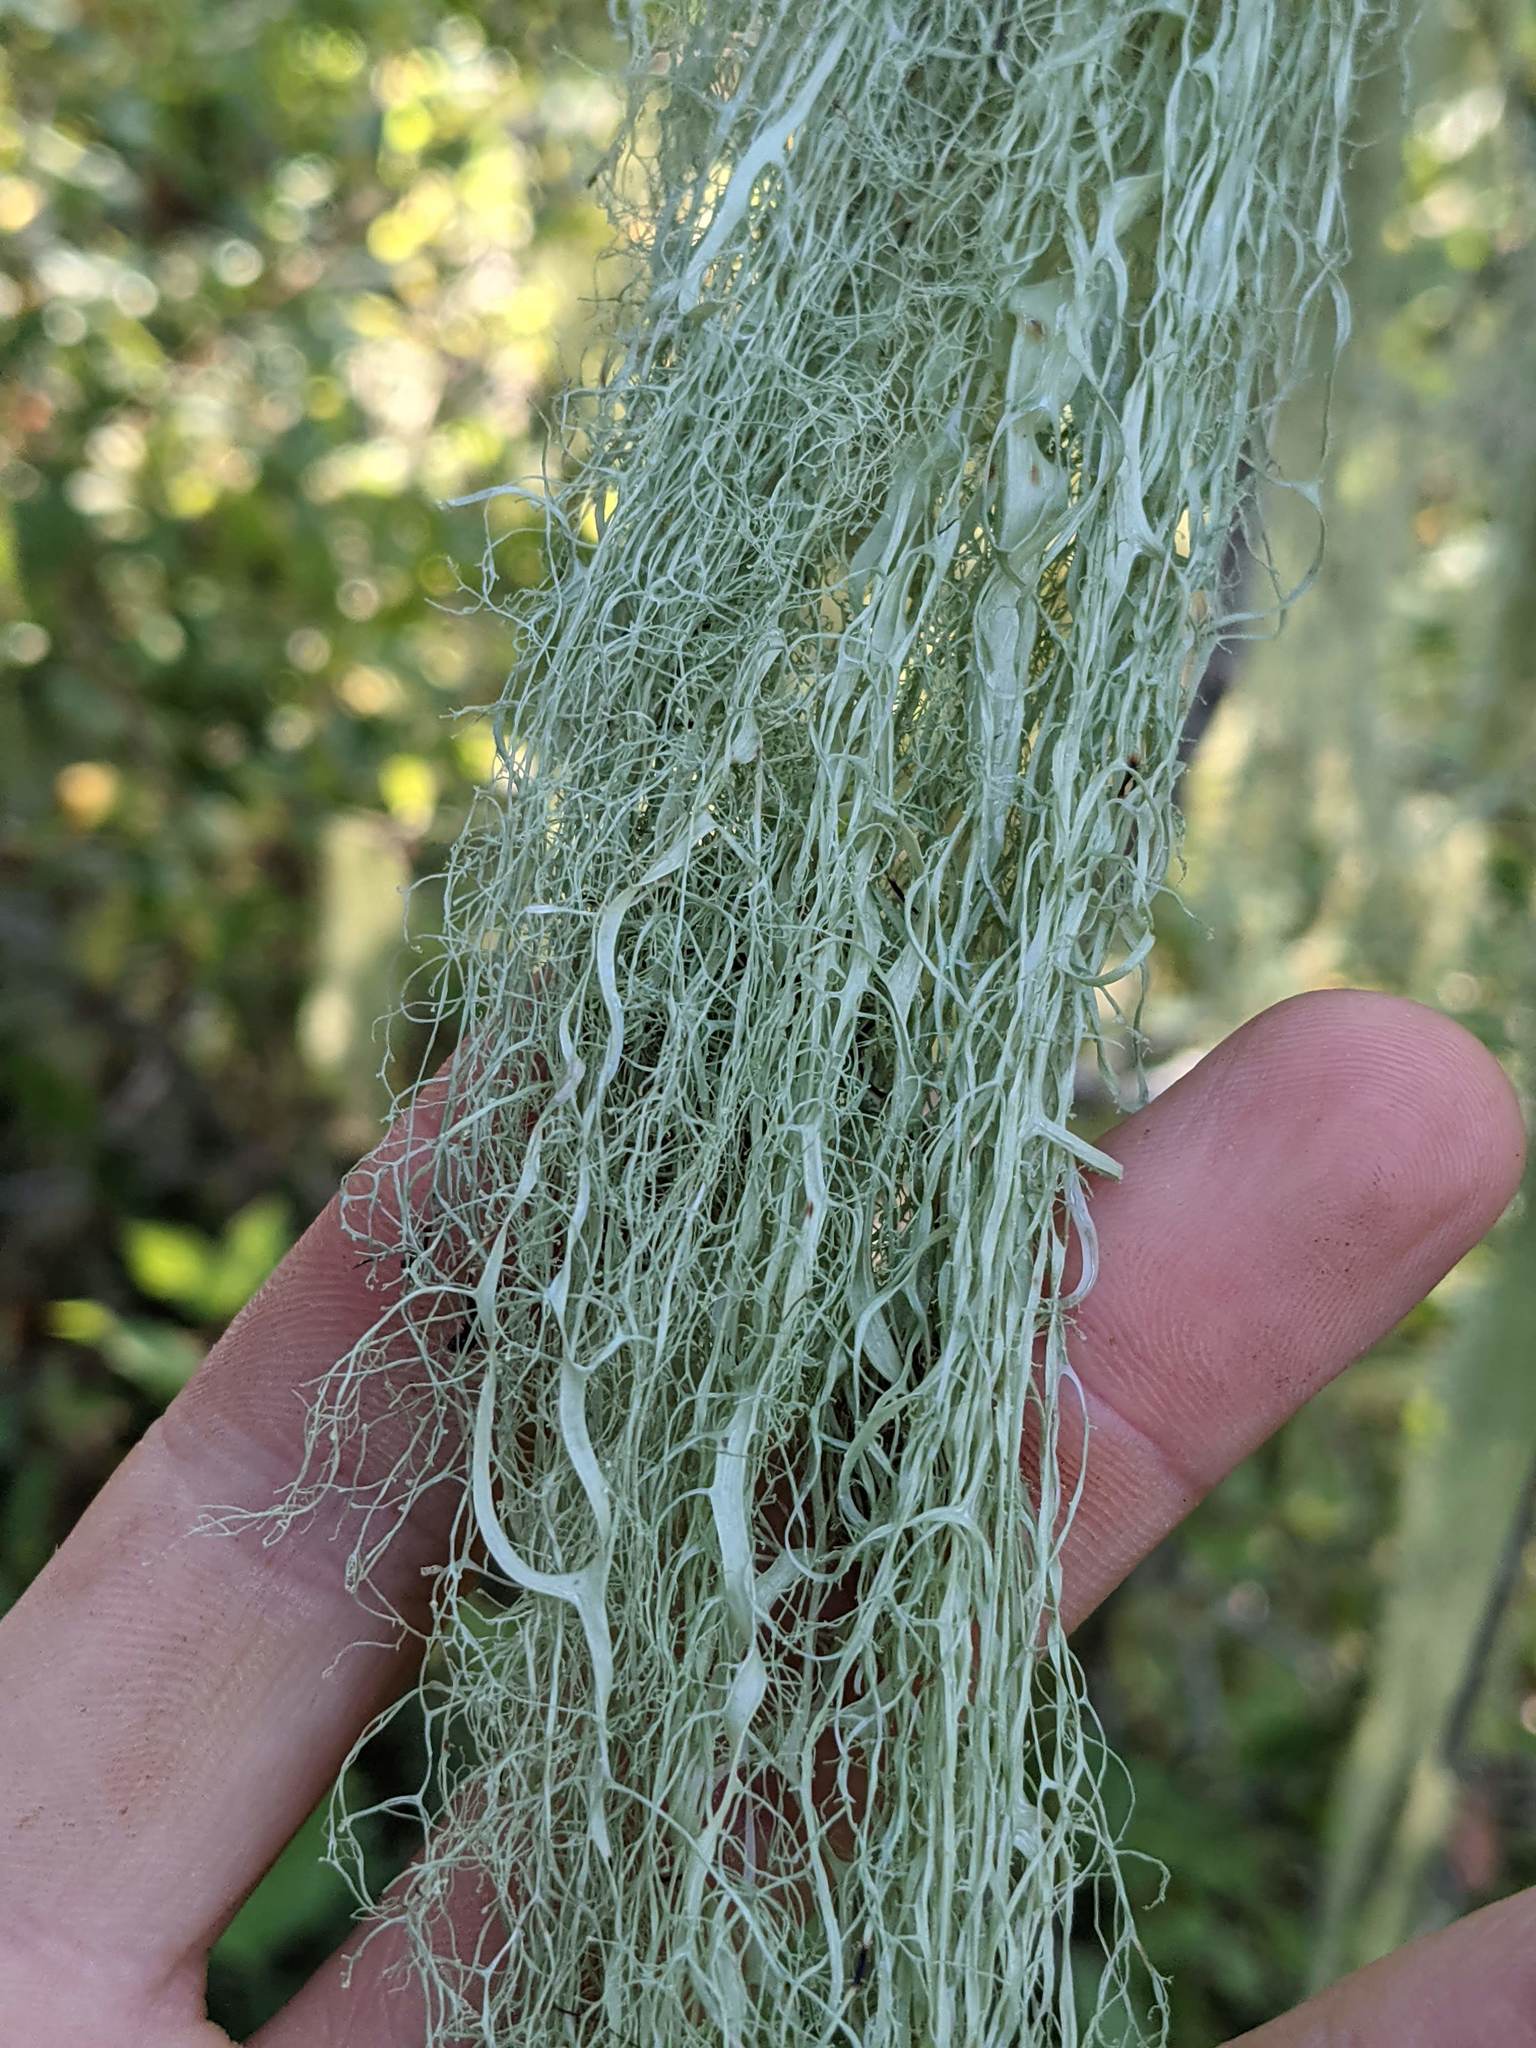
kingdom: Fungi
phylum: Ascomycota
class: Lecanoromycetes
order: Lecanorales
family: Ramalinaceae
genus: Ramalina
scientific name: Ramalina menziesii
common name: Lace lichen
